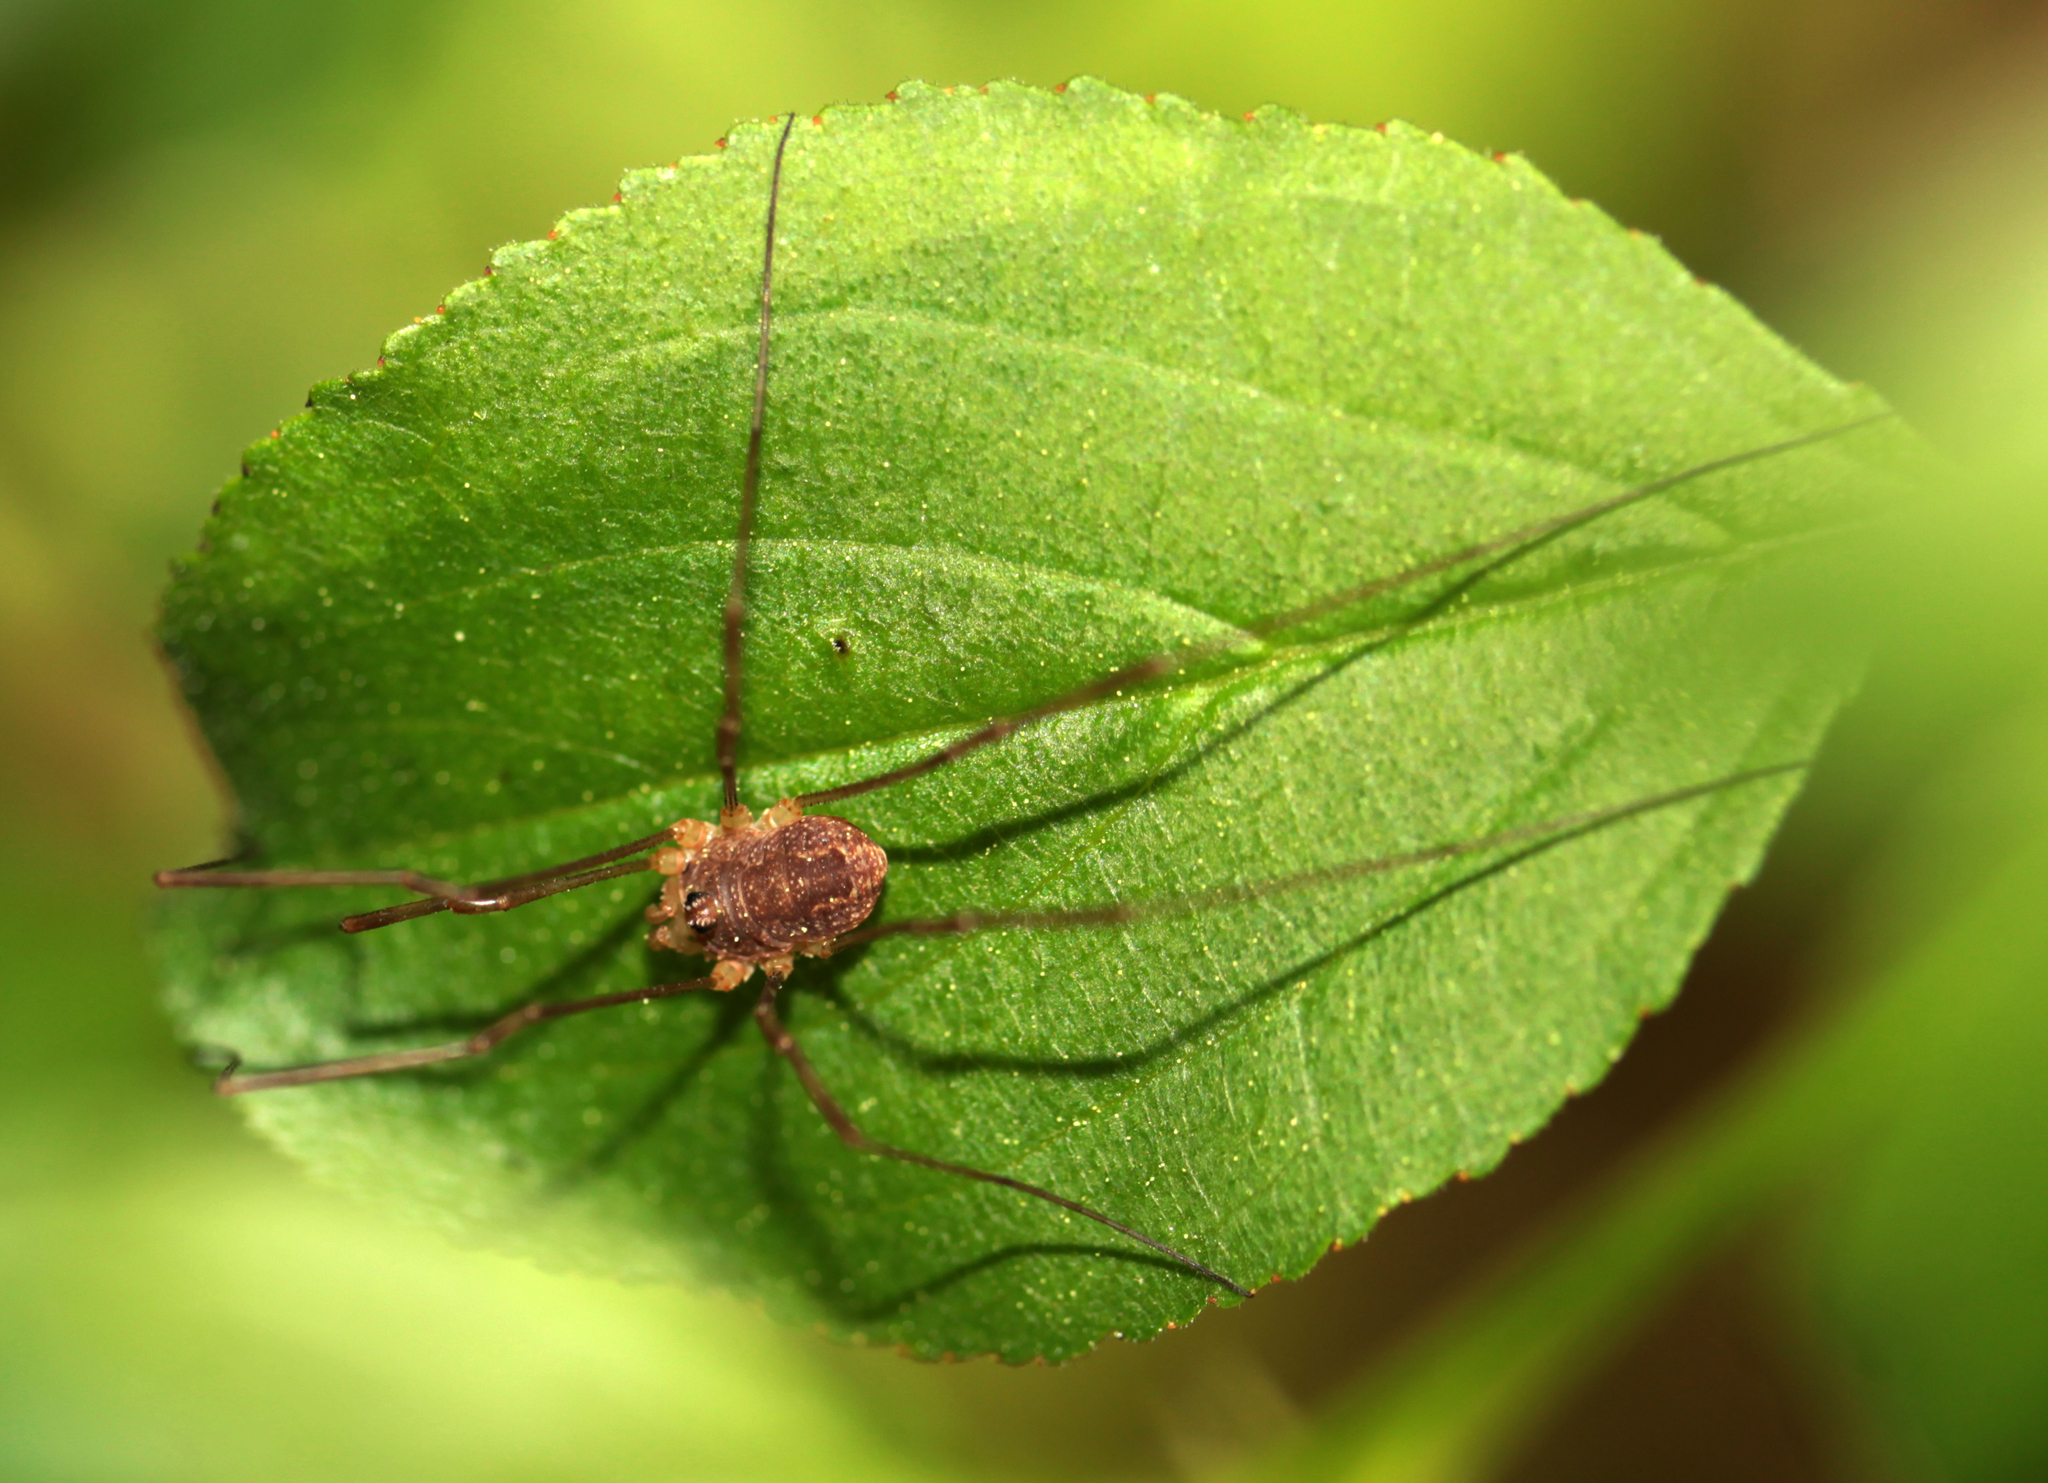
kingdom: Animalia
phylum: Arthropoda
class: Arachnida
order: Opiliones
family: Phalangiidae
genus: Rilaena
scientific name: Rilaena triangularis
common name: Spring harvestman
